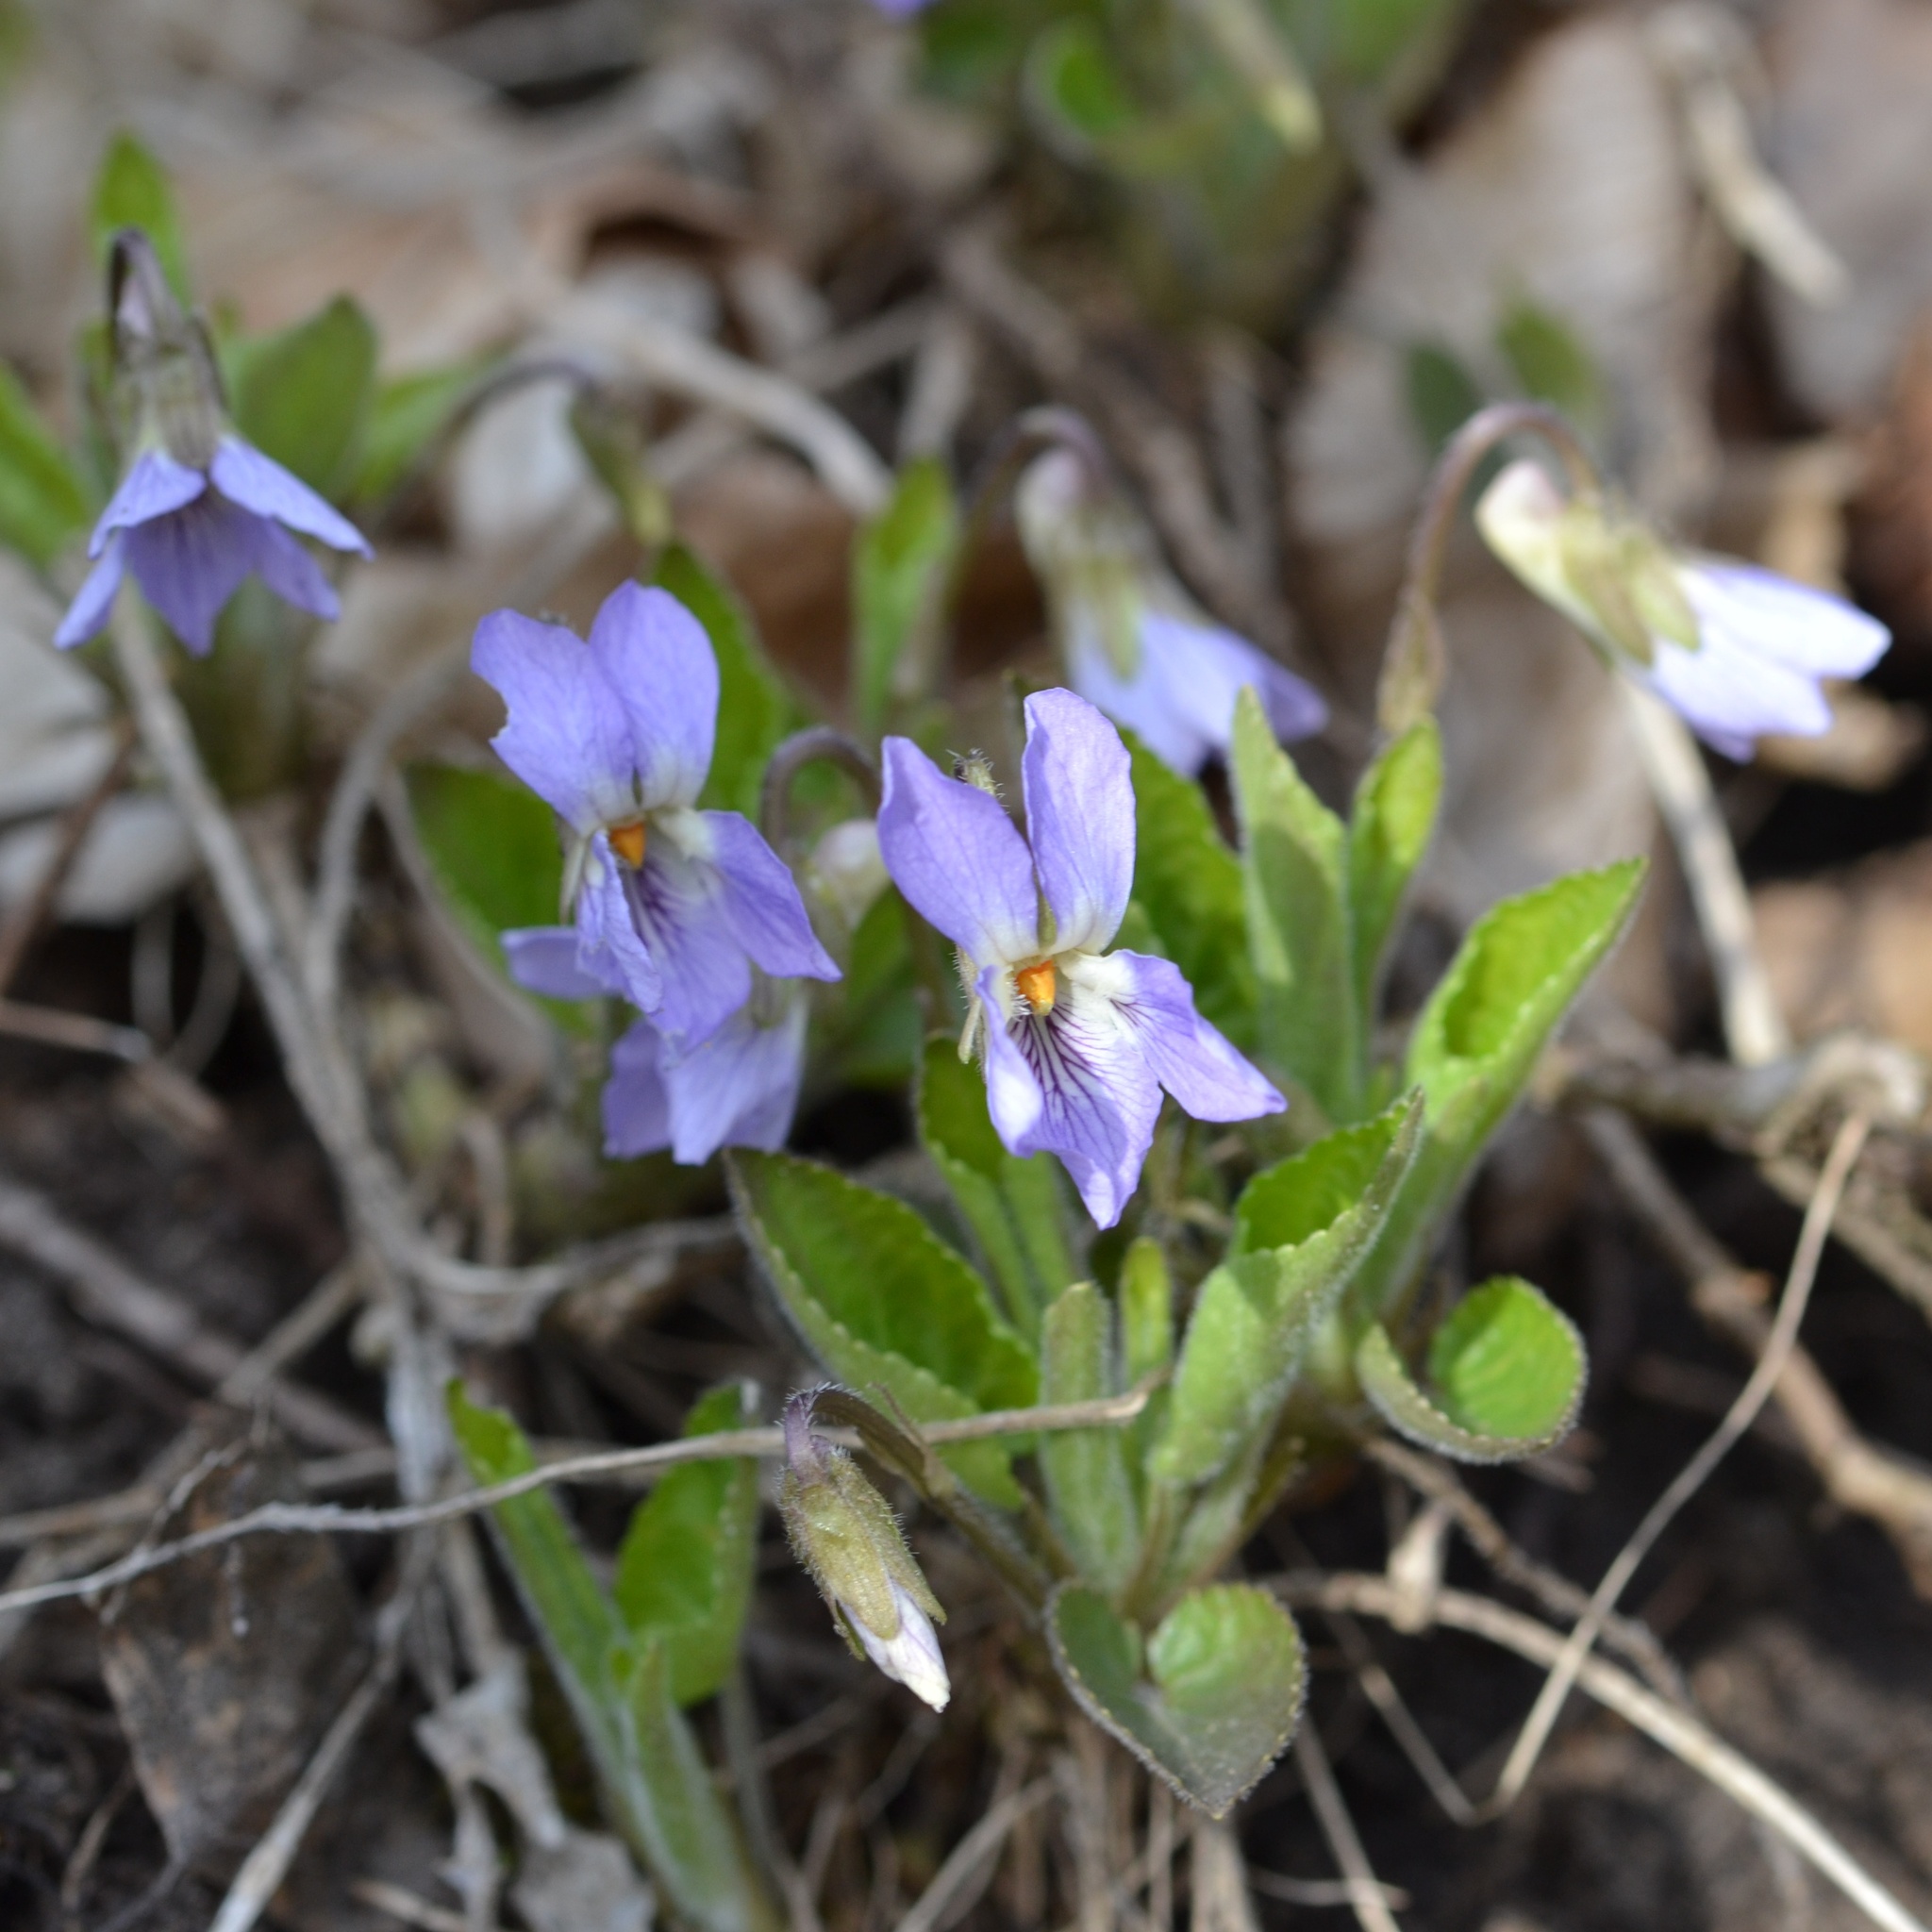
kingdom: Plantae
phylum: Tracheophyta
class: Magnoliopsida
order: Malpighiales
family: Violaceae
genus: Viola
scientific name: Viola collina
